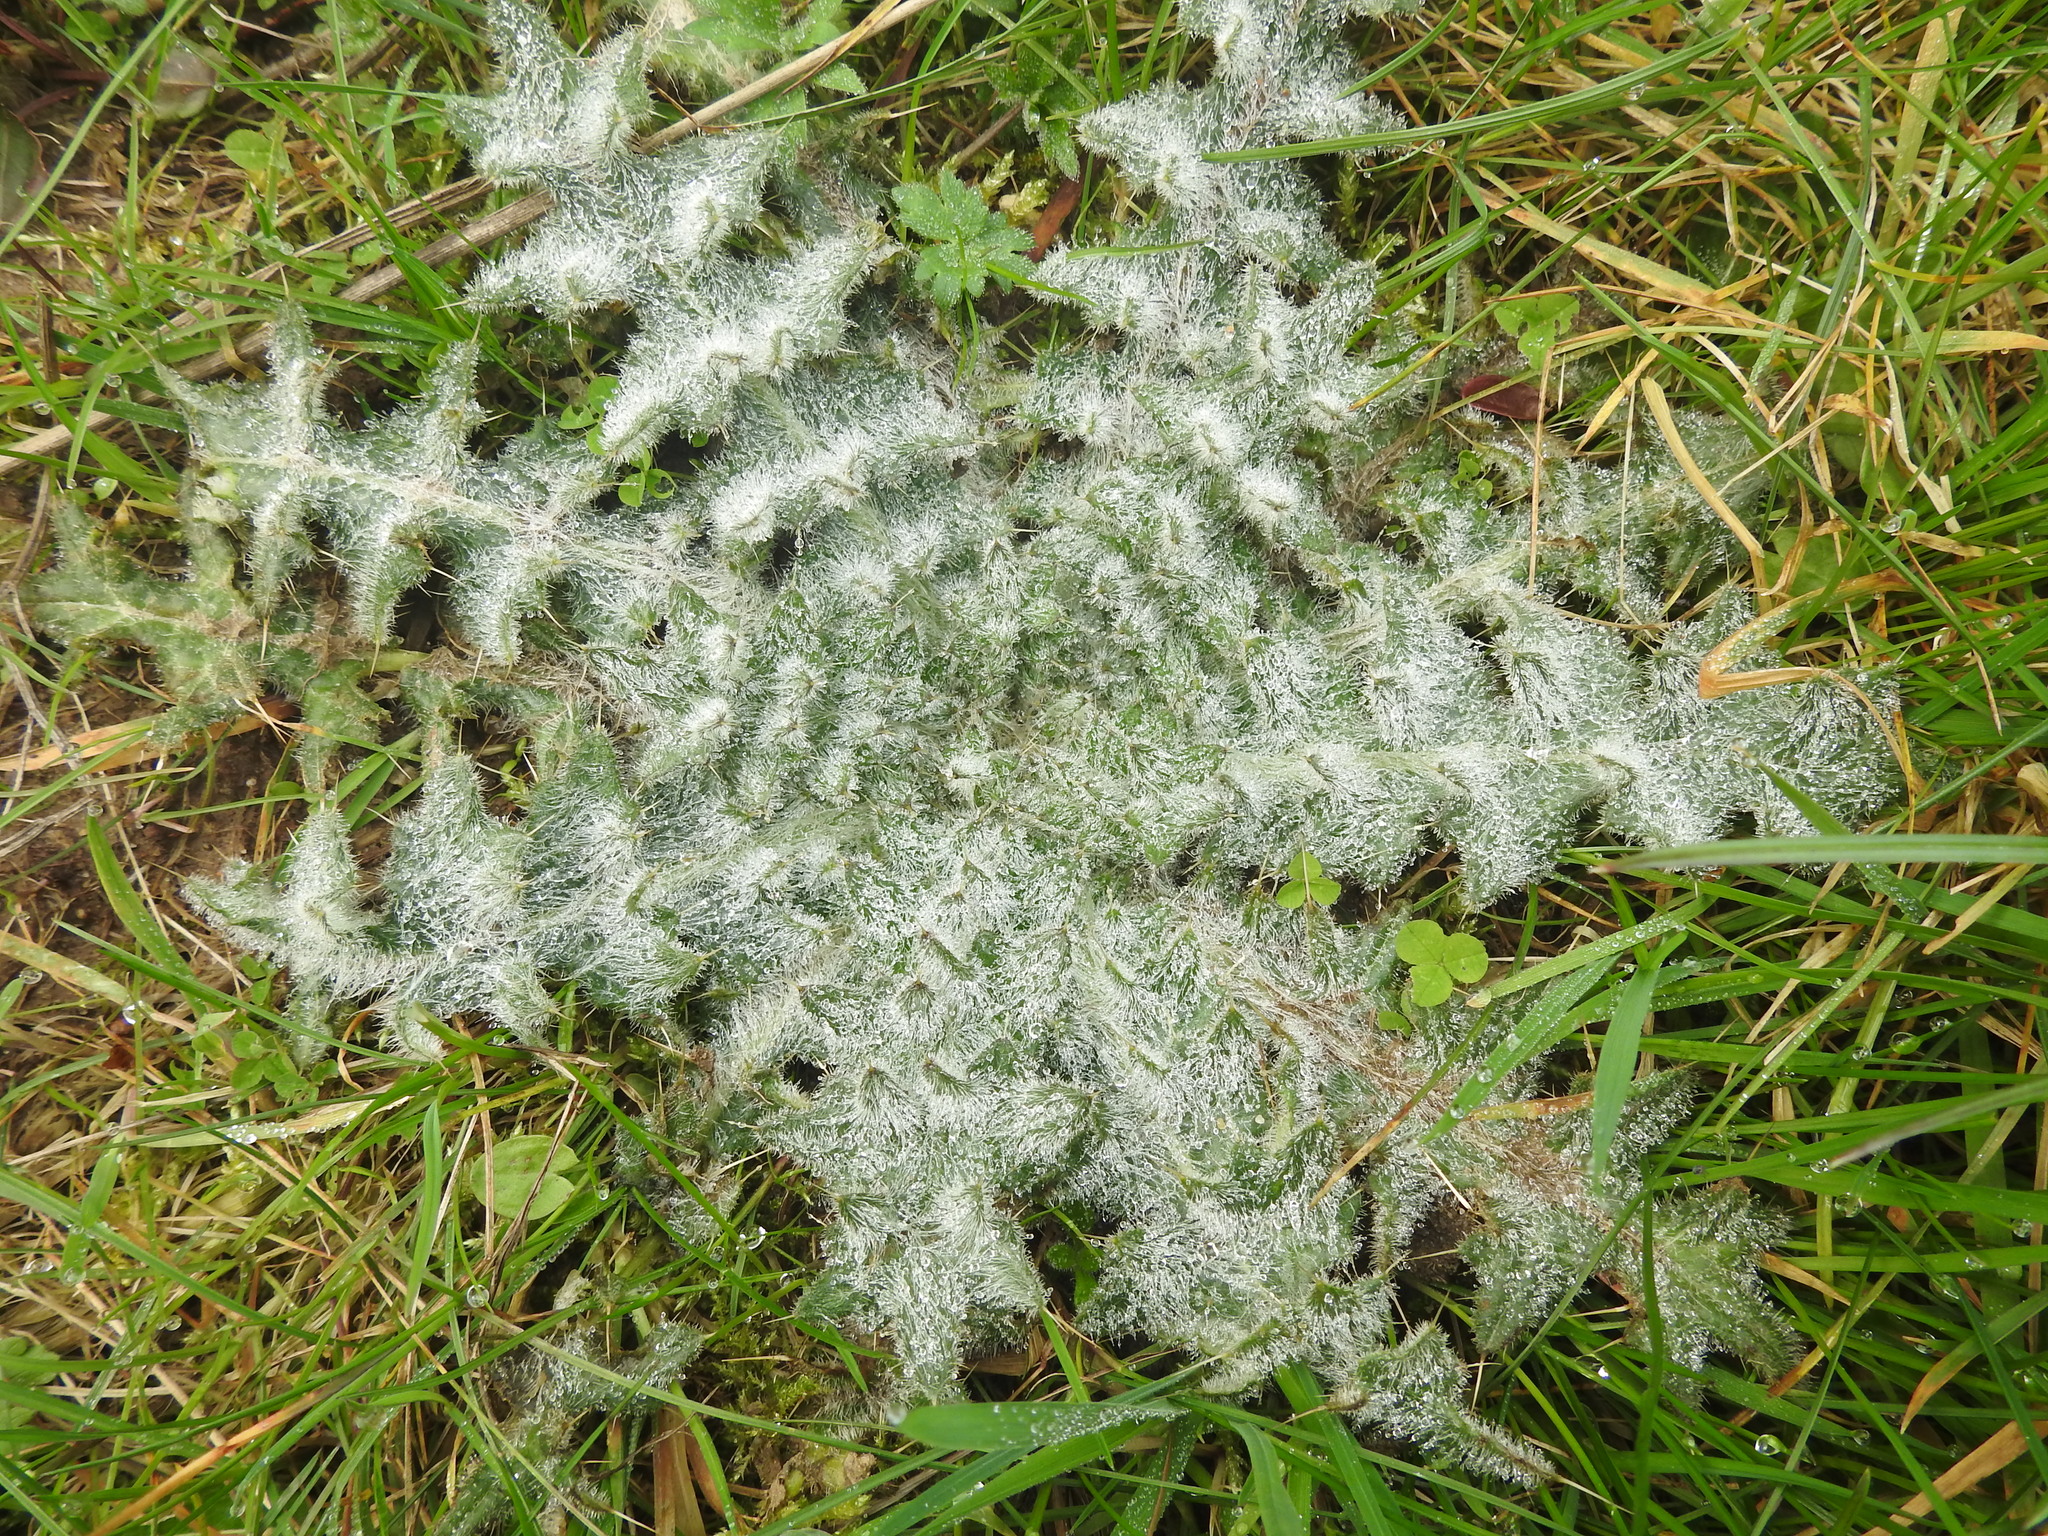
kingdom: Plantae
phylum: Tracheophyta
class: Magnoliopsida
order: Asterales
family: Asteraceae
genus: Cirsium
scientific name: Cirsium vulgare
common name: Bull thistle
